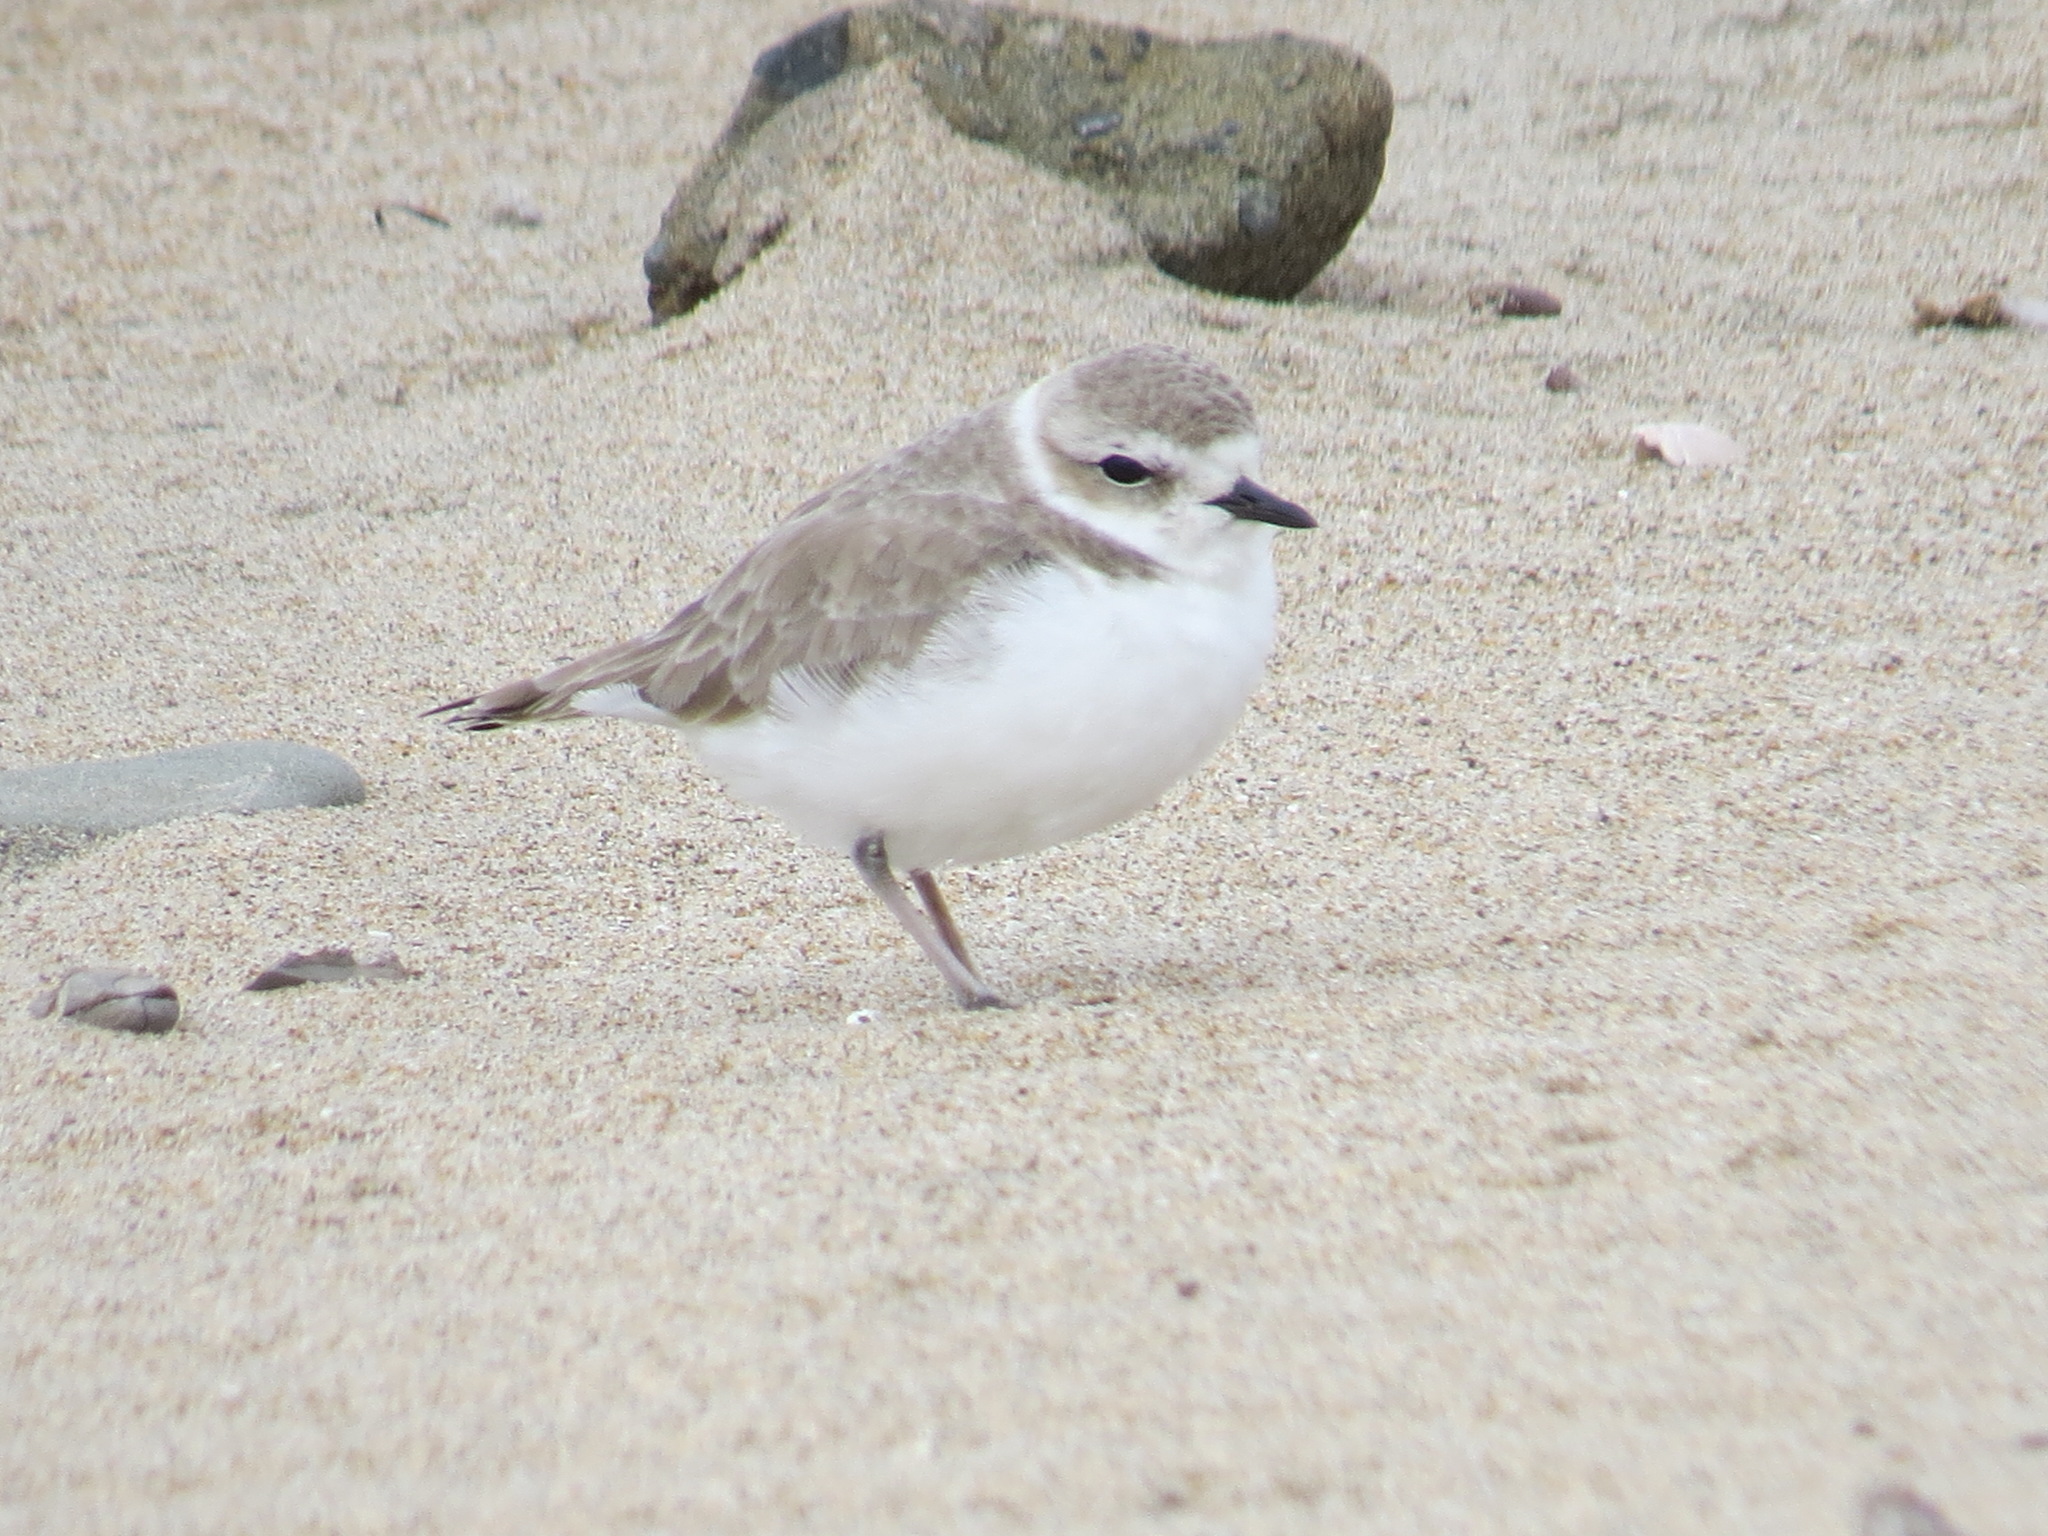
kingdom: Animalia
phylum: Chordata
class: Aves
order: Charadriiformes
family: Charadriidae
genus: Anarhynchus
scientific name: Anarhynchus
